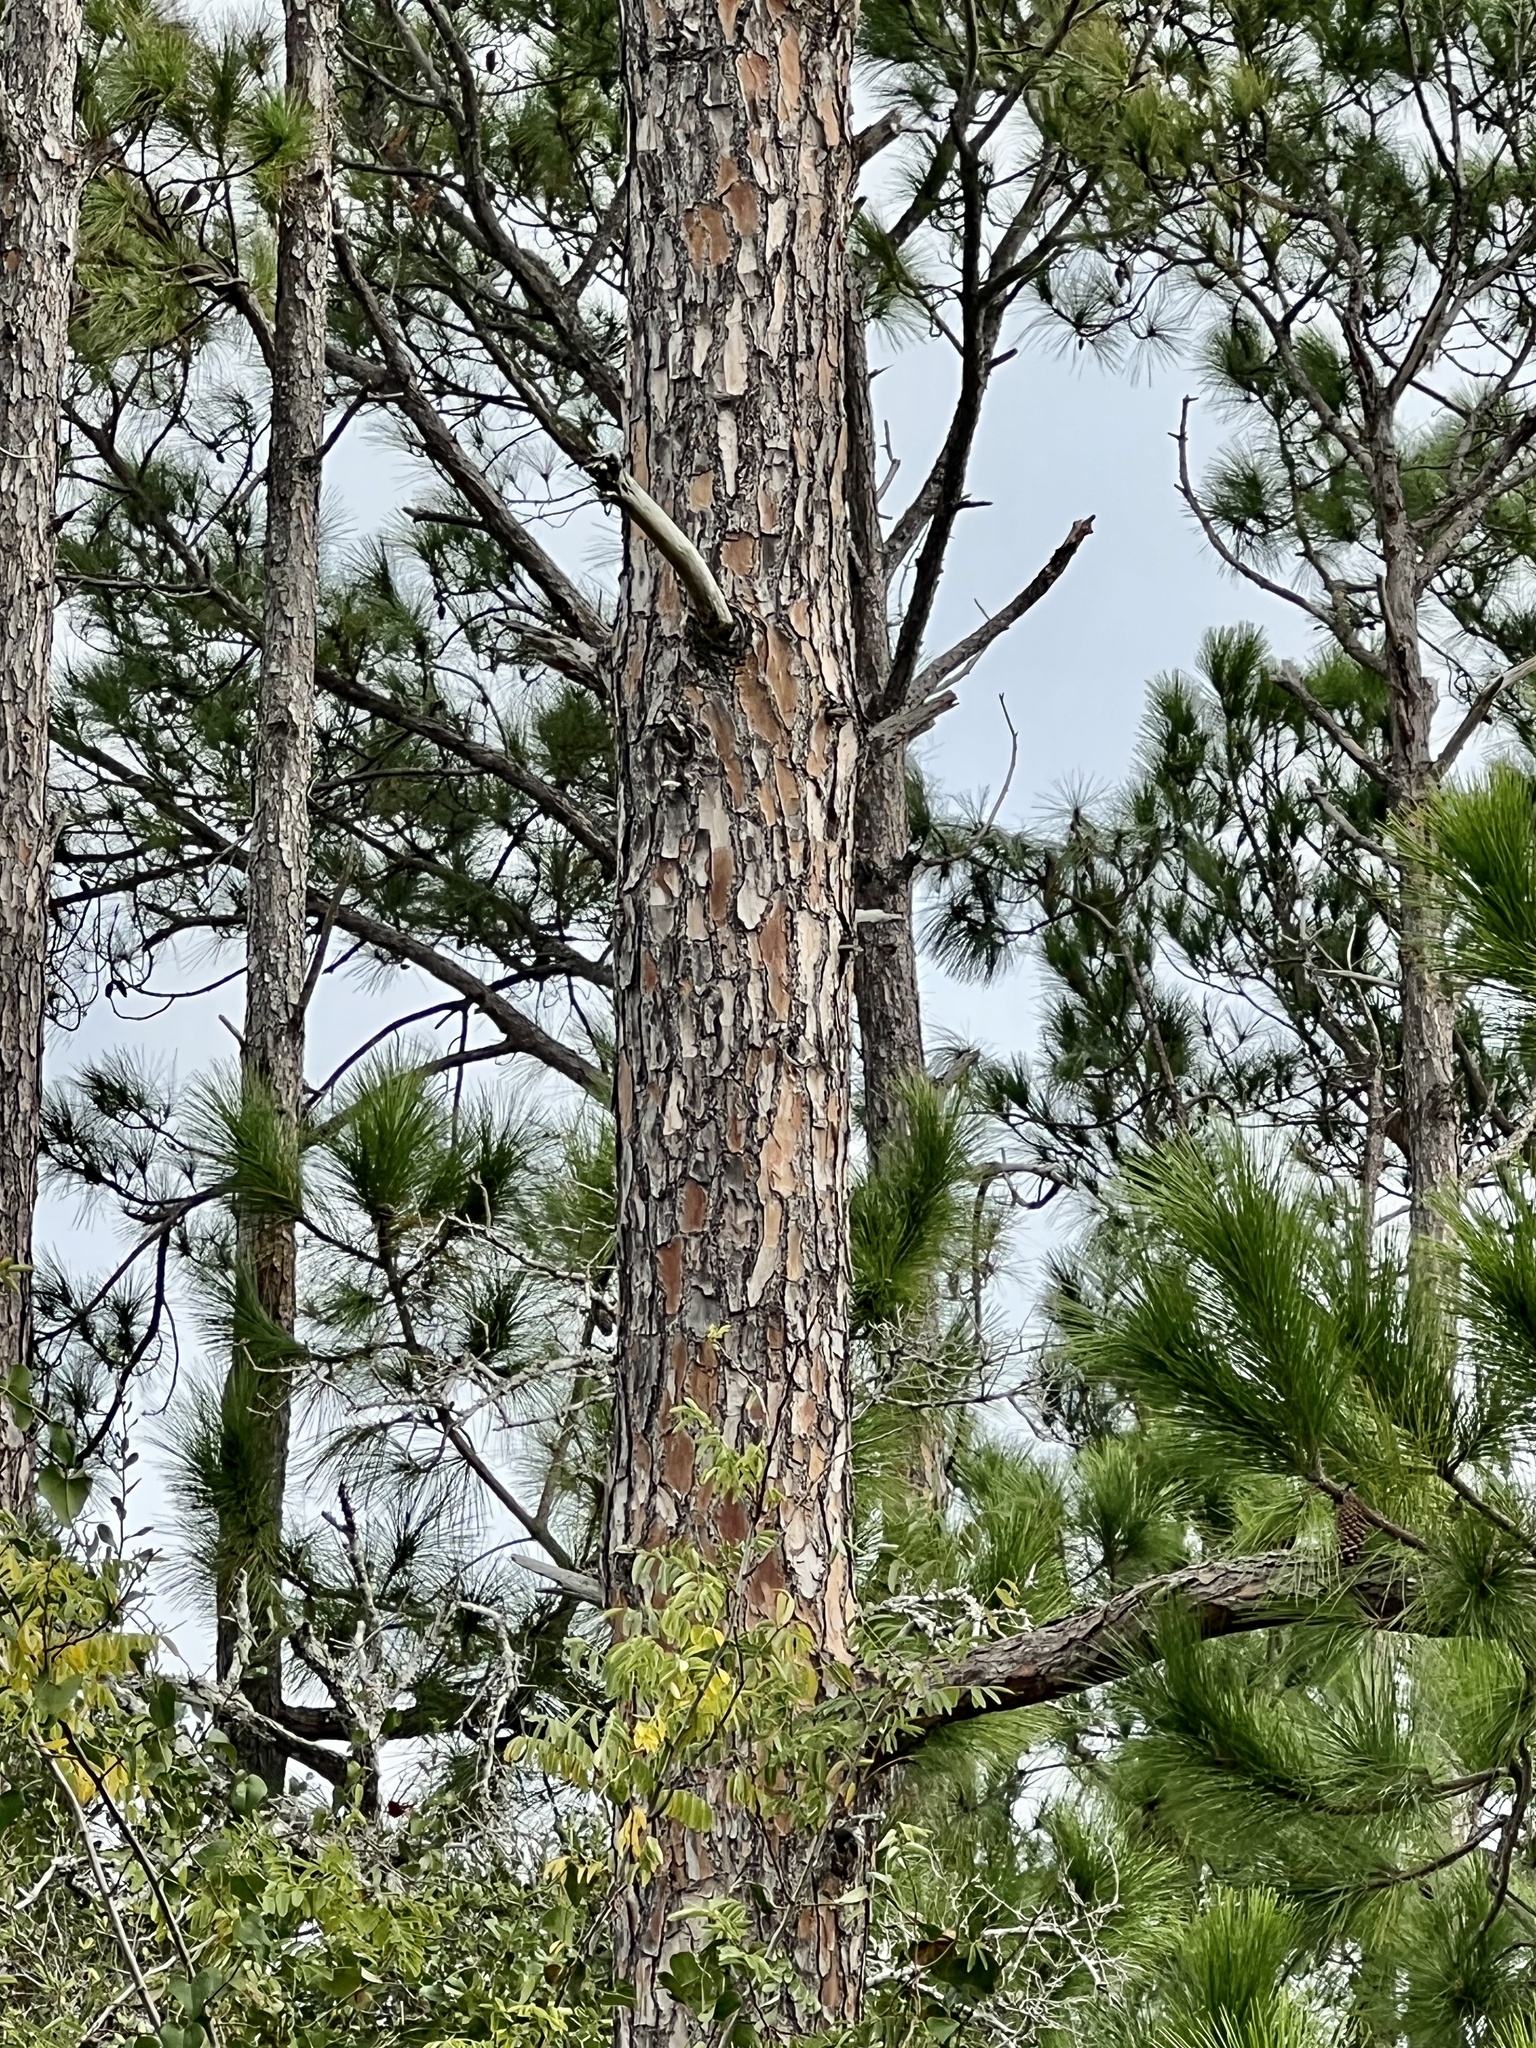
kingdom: Plantae
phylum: Tracheophyta
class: Pinopsida
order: Pinales
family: Pinaceae
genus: Pinus
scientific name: Pinus elliottii
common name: Slash pine
